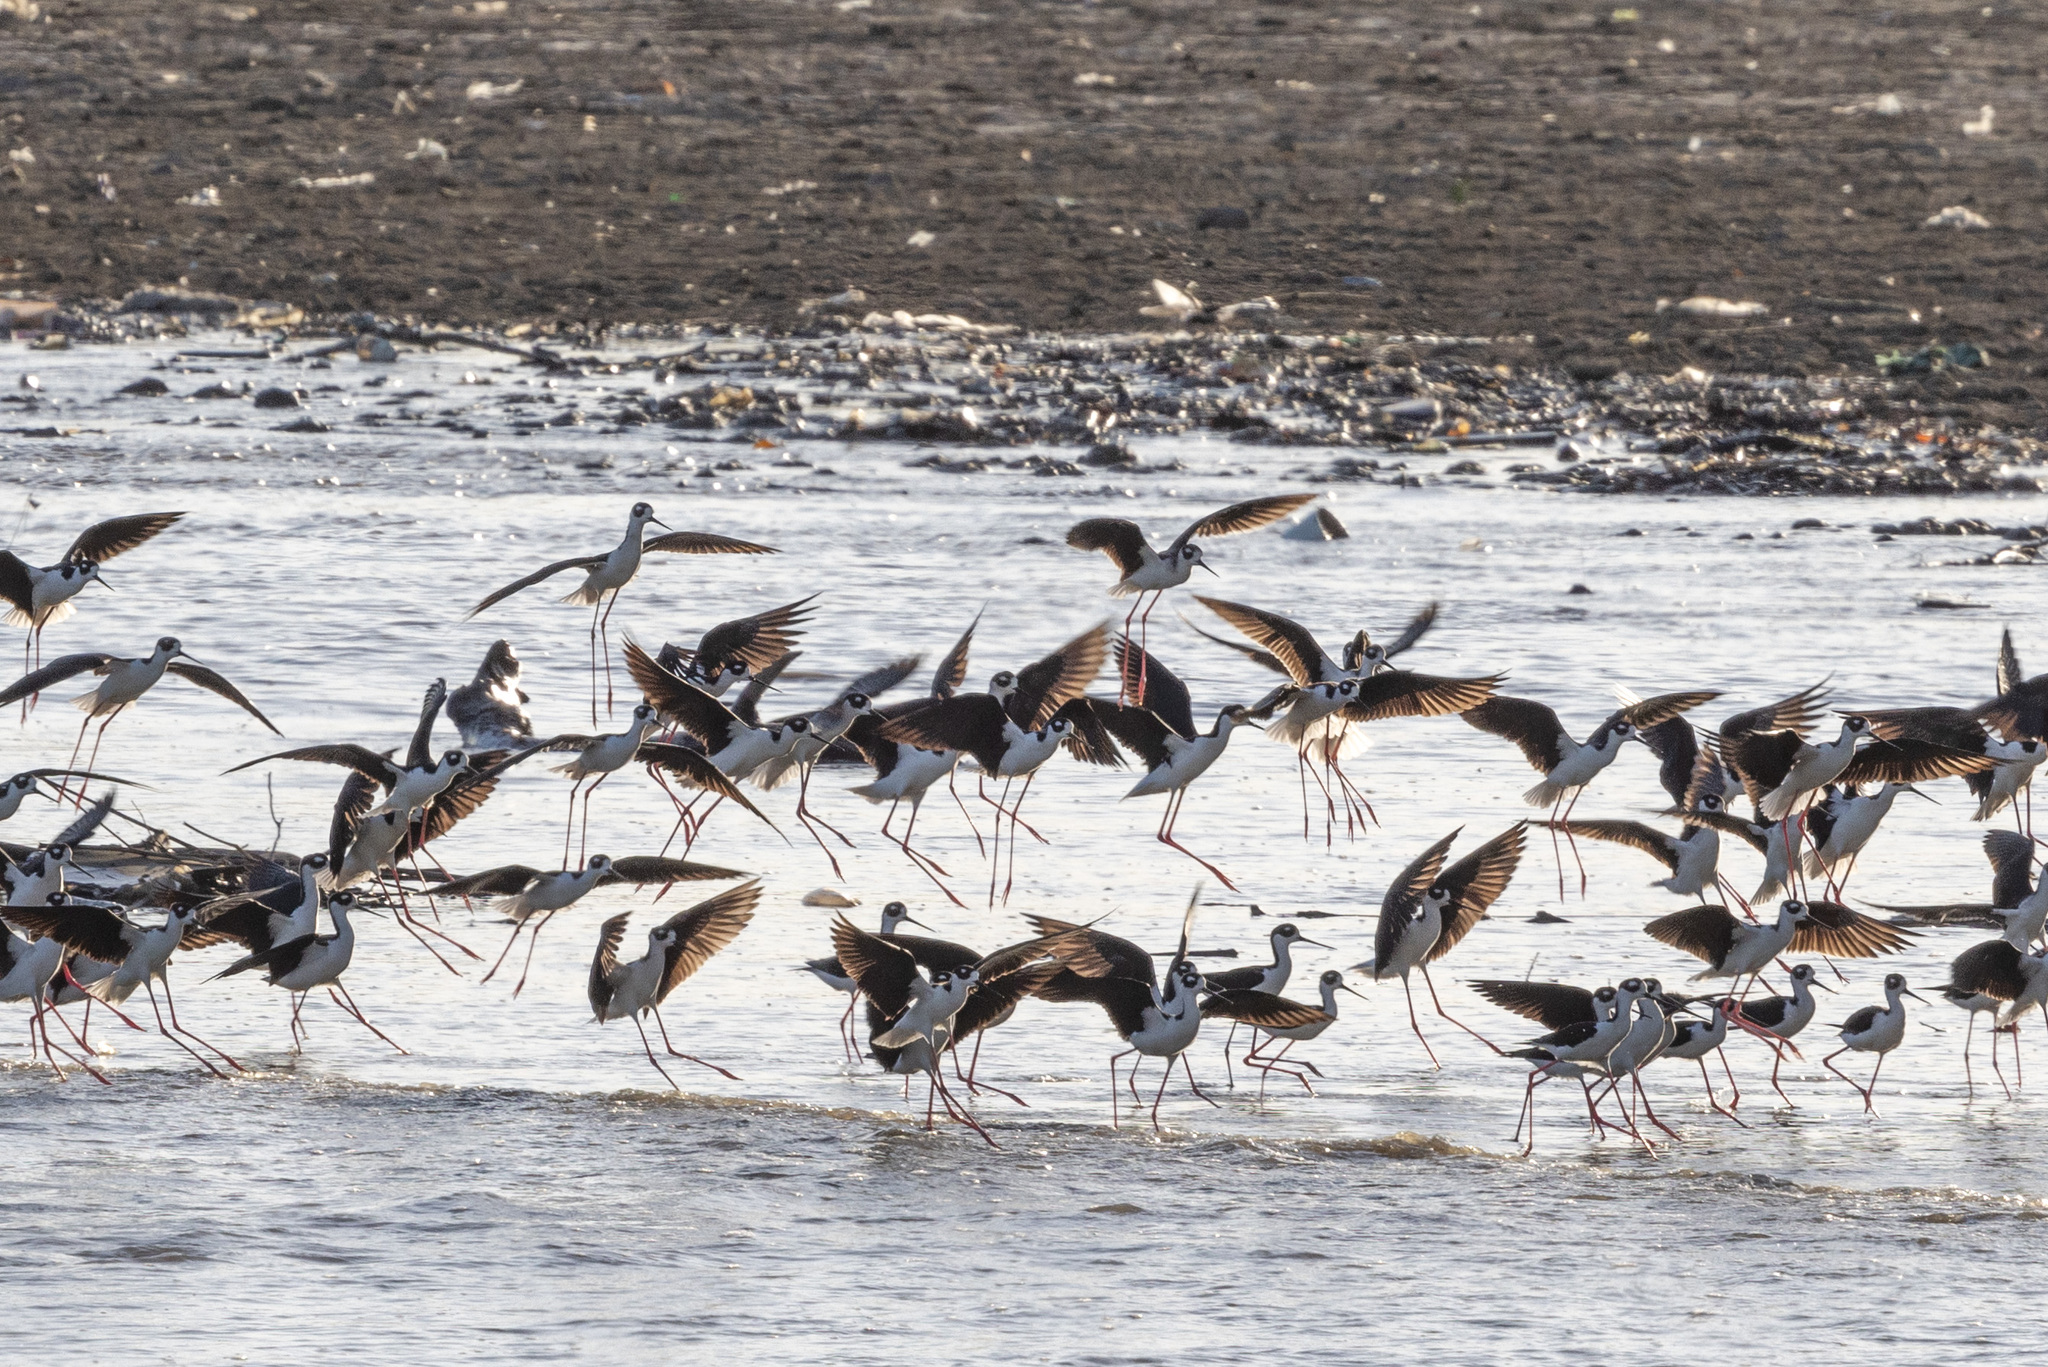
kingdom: Animalia
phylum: Chordata
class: Aves
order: Charadriiformes
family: Recurvirostridae
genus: Himantopus
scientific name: Himantopus mexicanus
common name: Black-necked stilt
